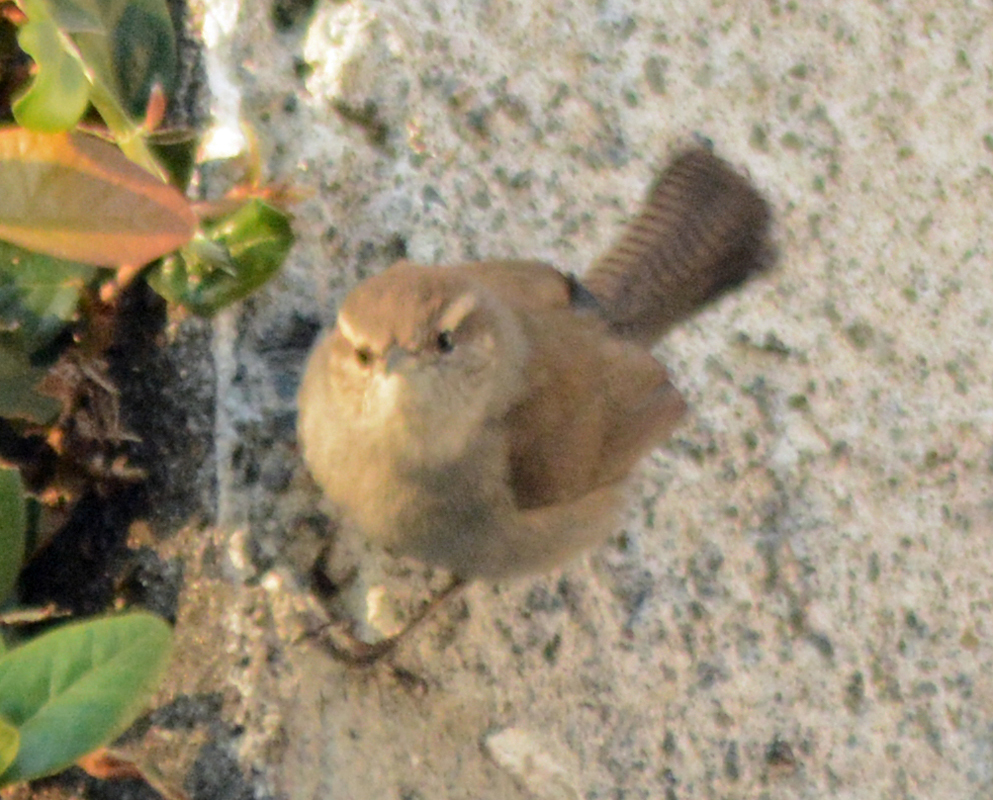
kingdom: Animalia
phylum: Chordata
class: Aves
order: Passeriformes
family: Troglodytidae
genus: Thryomanes
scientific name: Thryomanes bewickii
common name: Bewick's wren
